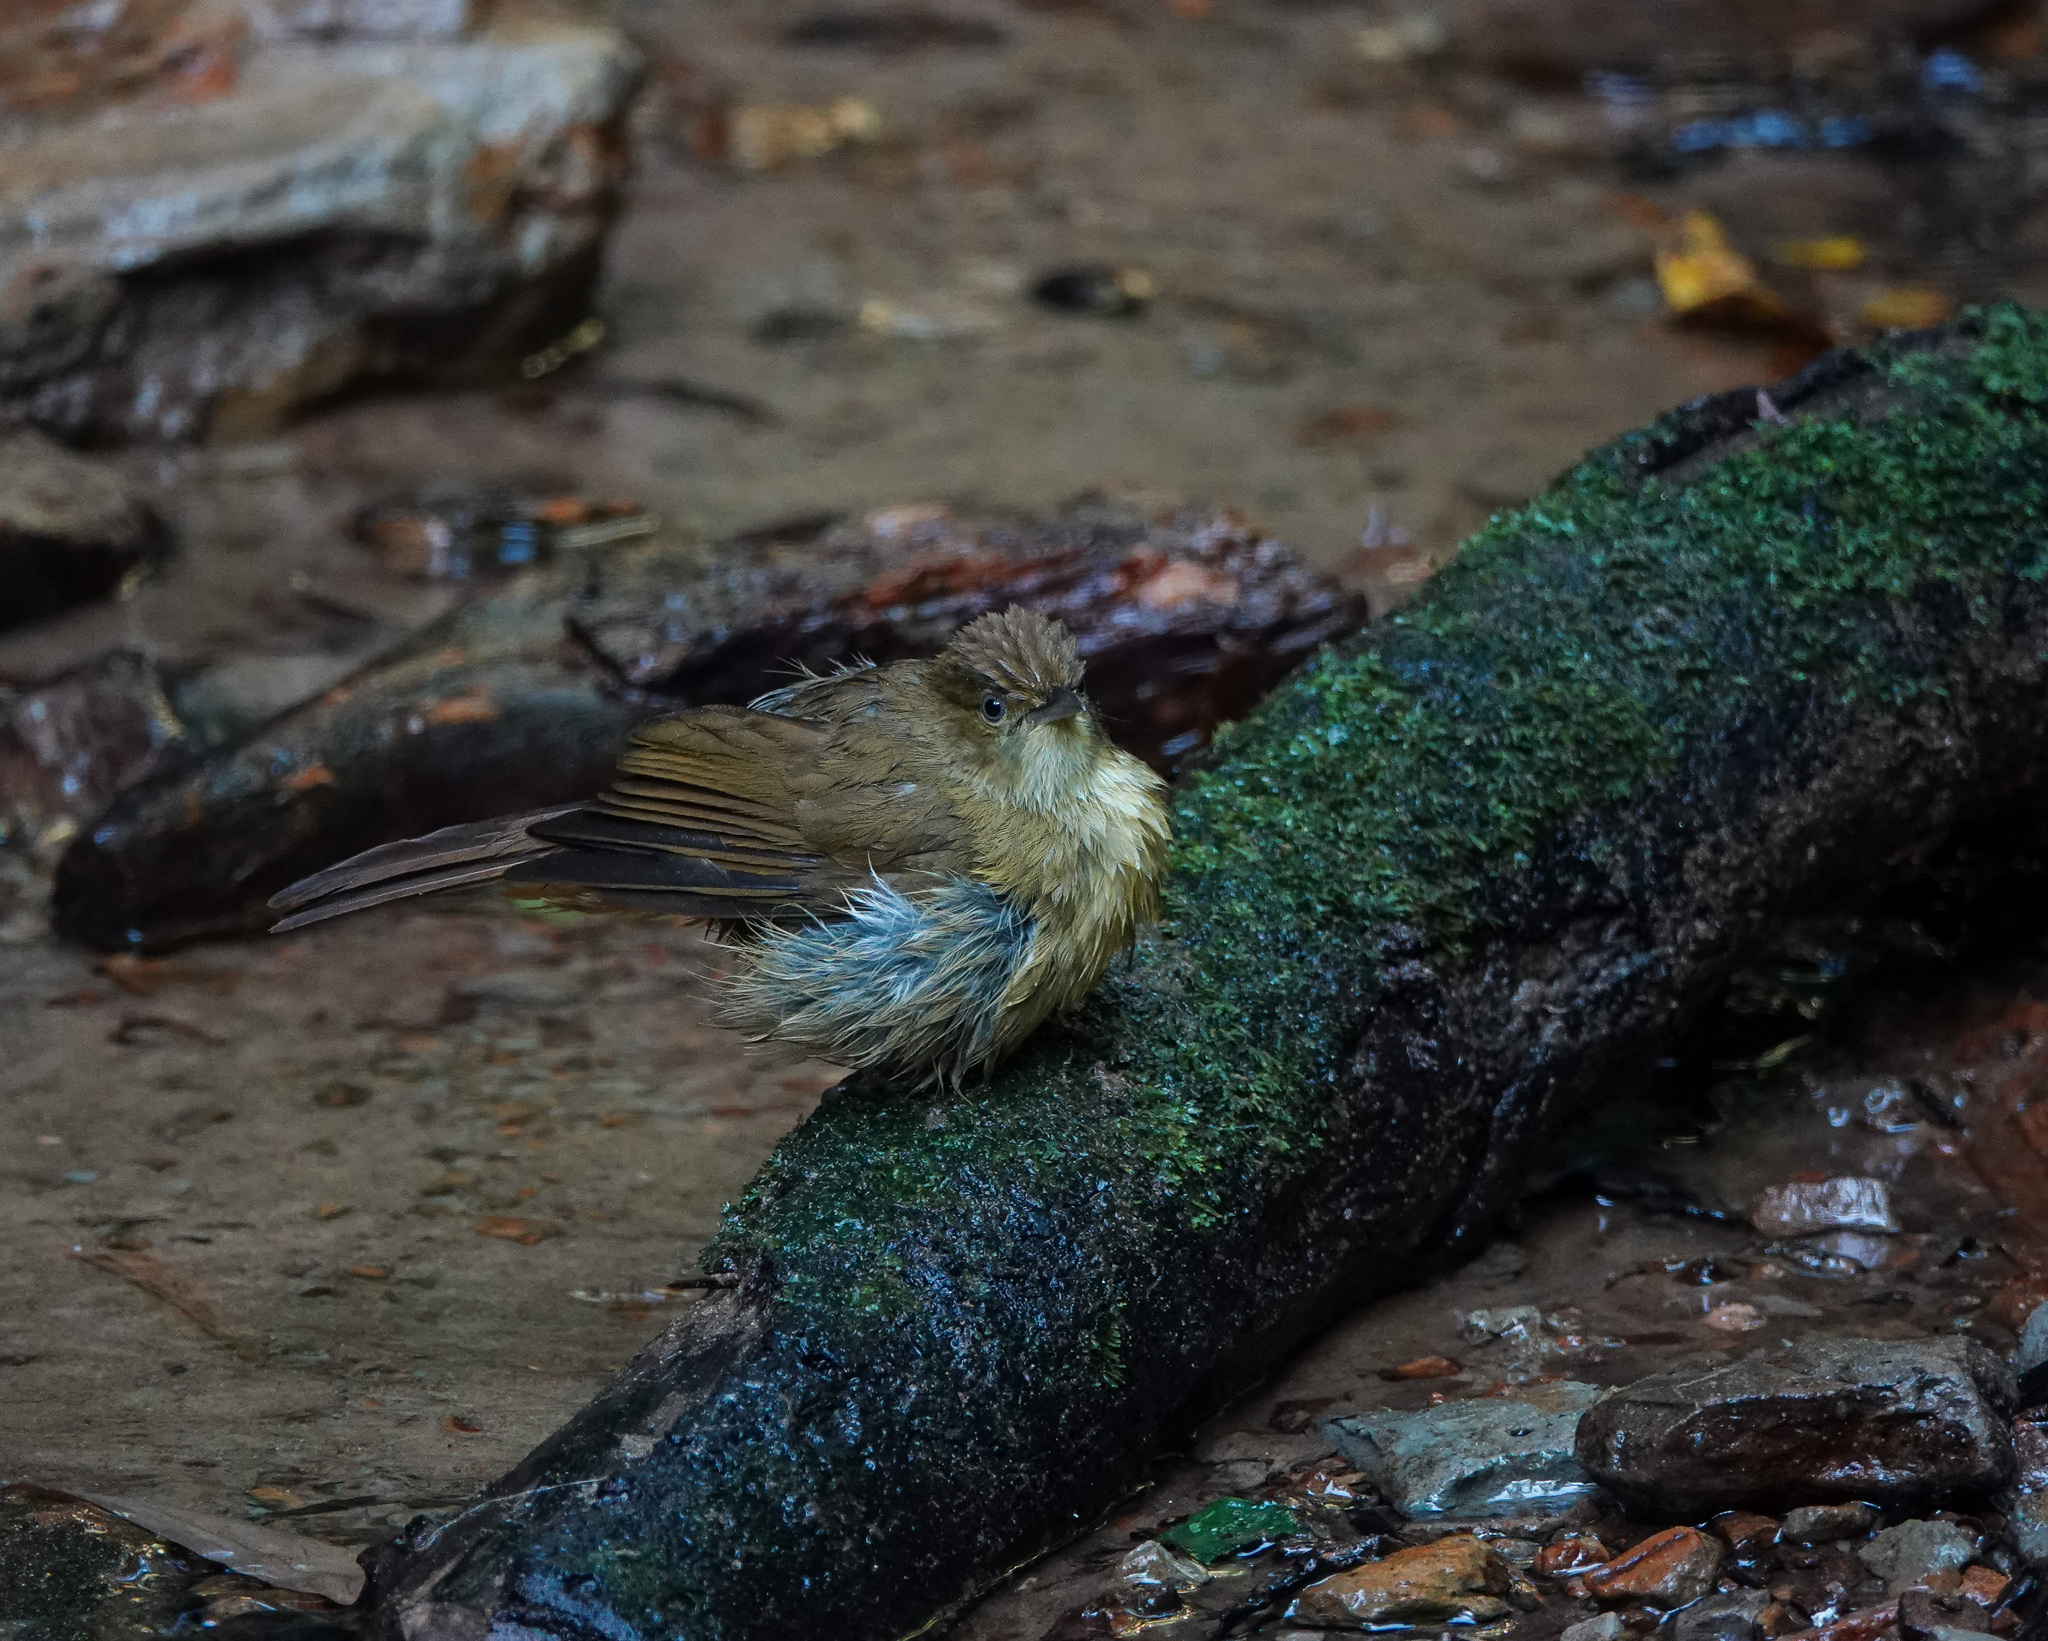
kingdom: Animalia
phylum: Chordata
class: Aves
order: Passeriformes
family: Pycnonotidae
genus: Iole
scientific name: Iole virescens
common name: Olive bulbul
